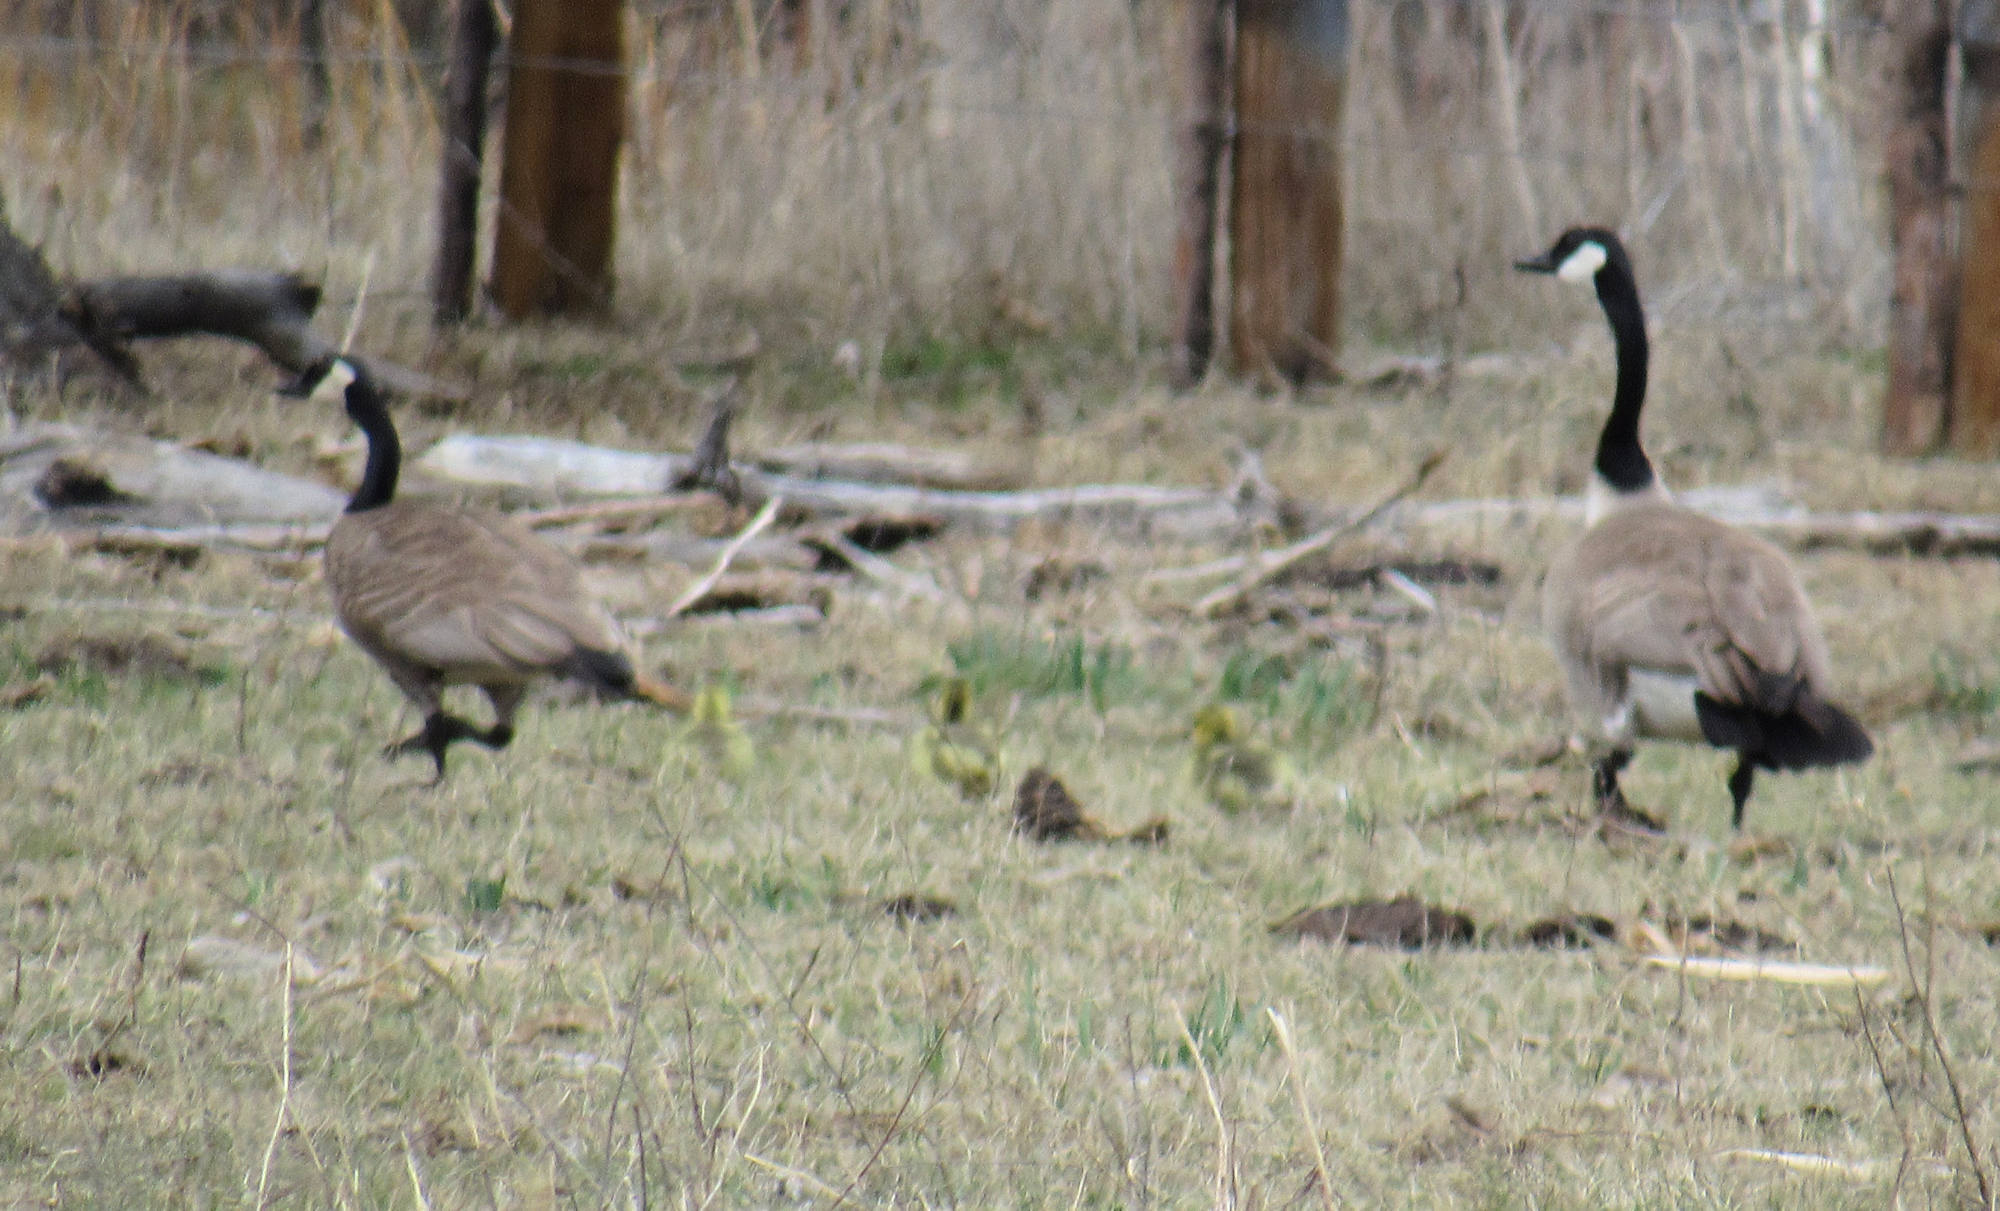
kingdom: Animalia
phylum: Chordata
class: Aves
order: Anseriformes
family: Anatidae
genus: Branta
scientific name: Branta canadensis
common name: Canada goose
